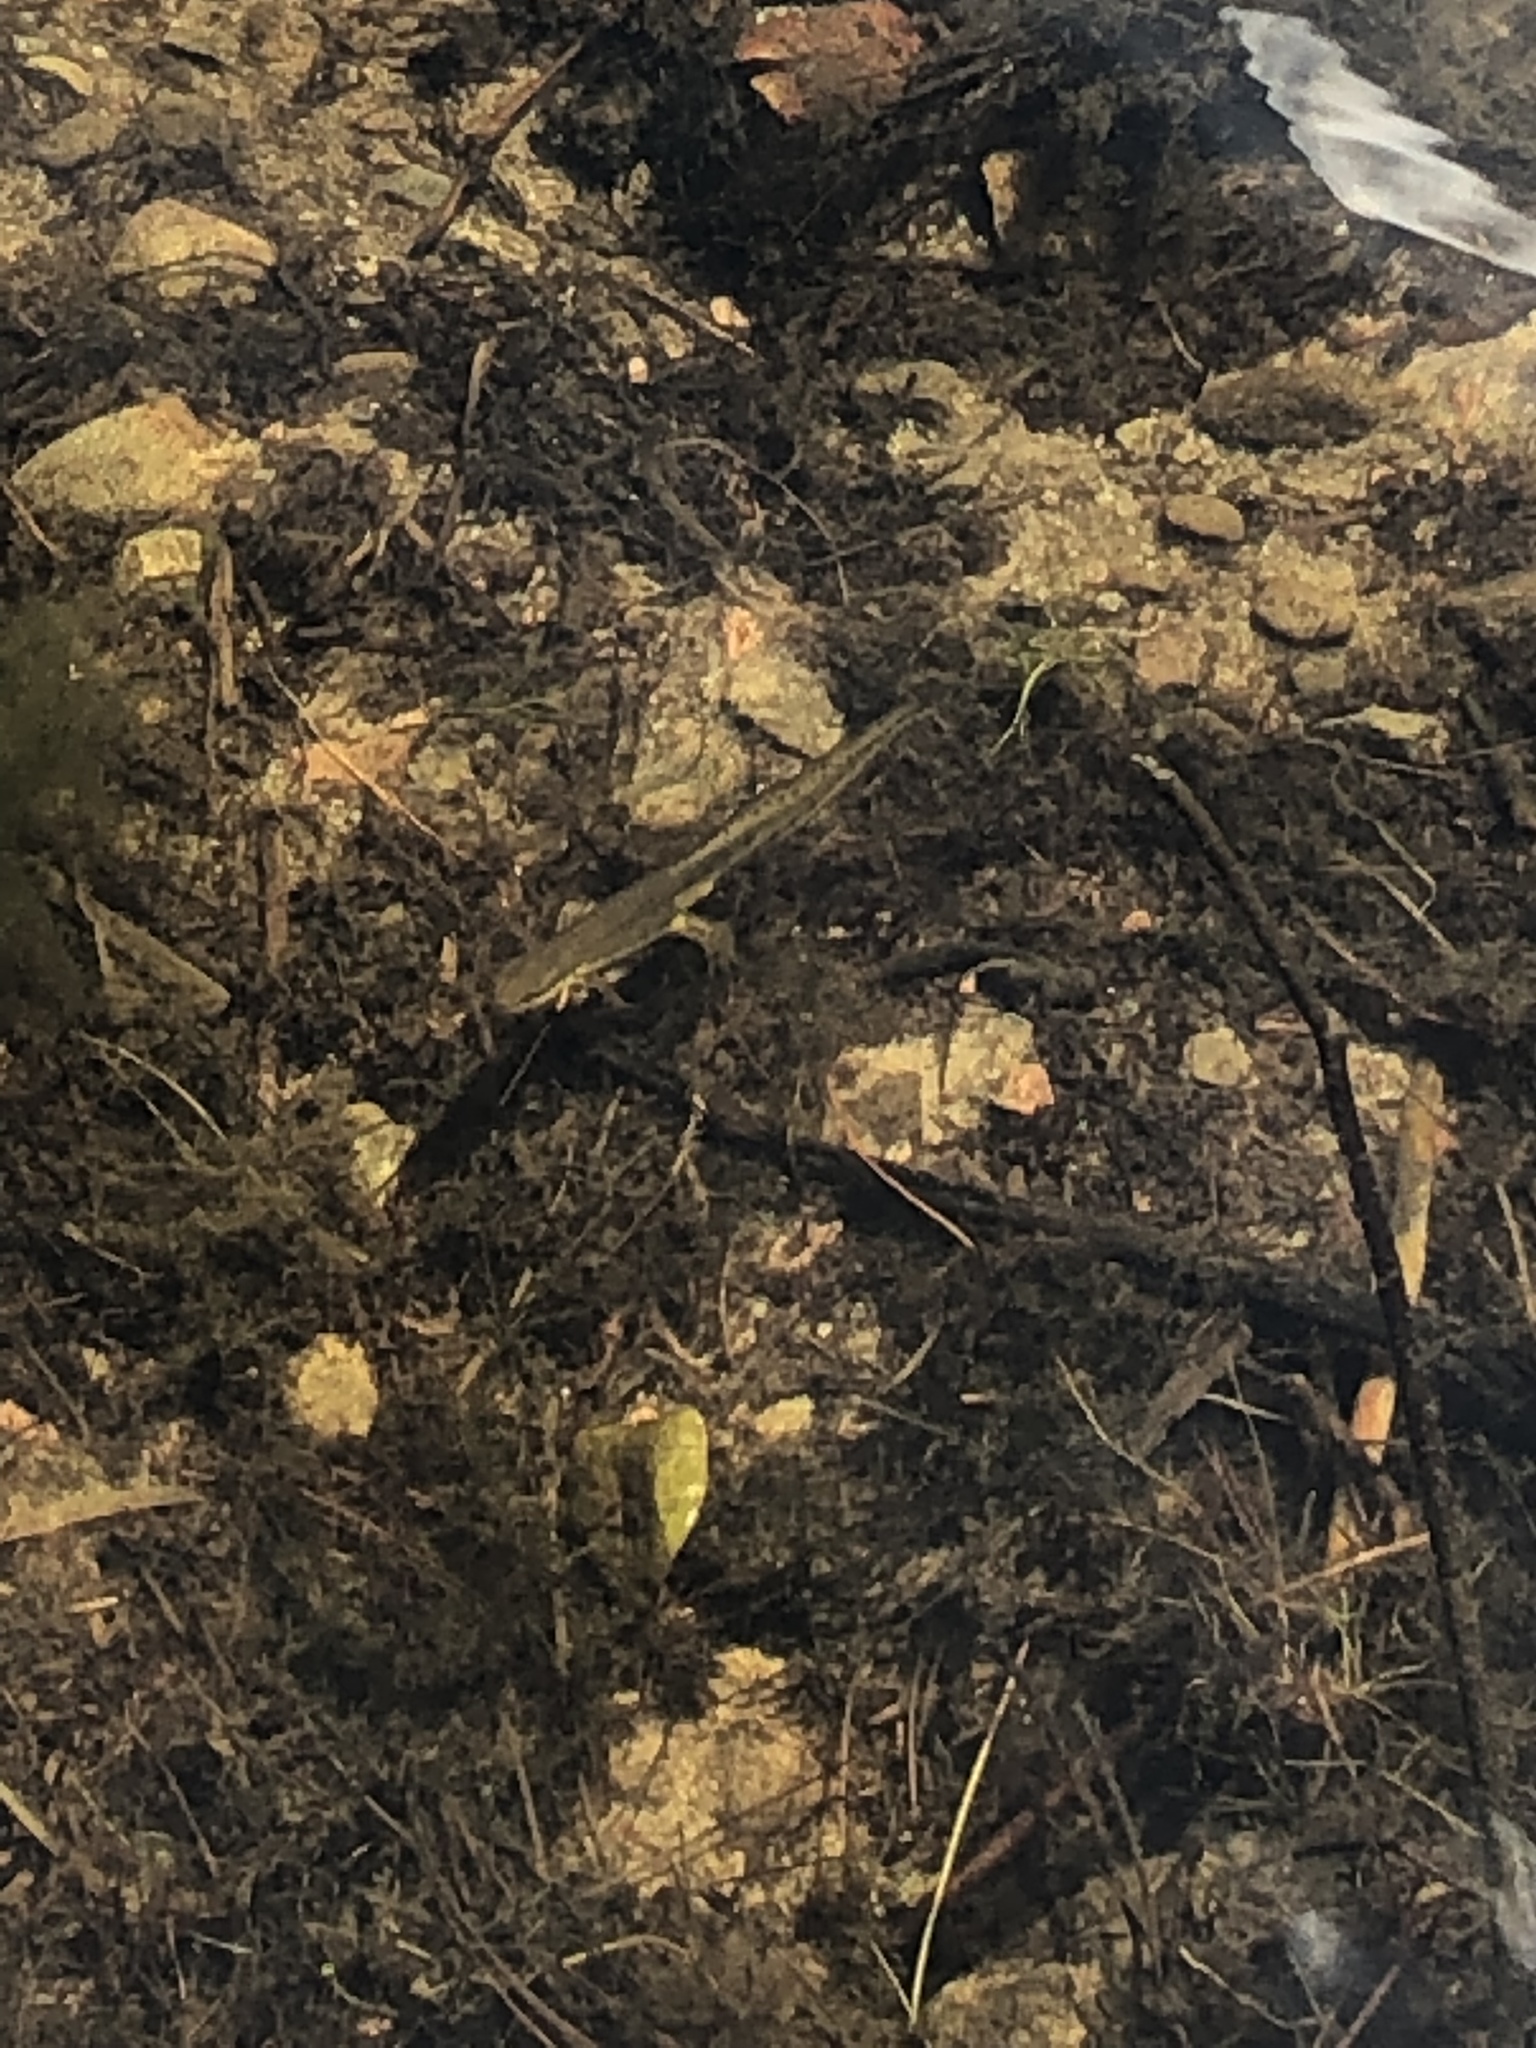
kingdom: Animalia
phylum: Chordata
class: Amphibia
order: Caudata
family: Salamandridae
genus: Notophthalmus
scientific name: Notophthalmus viridescens
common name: Eastern newt
